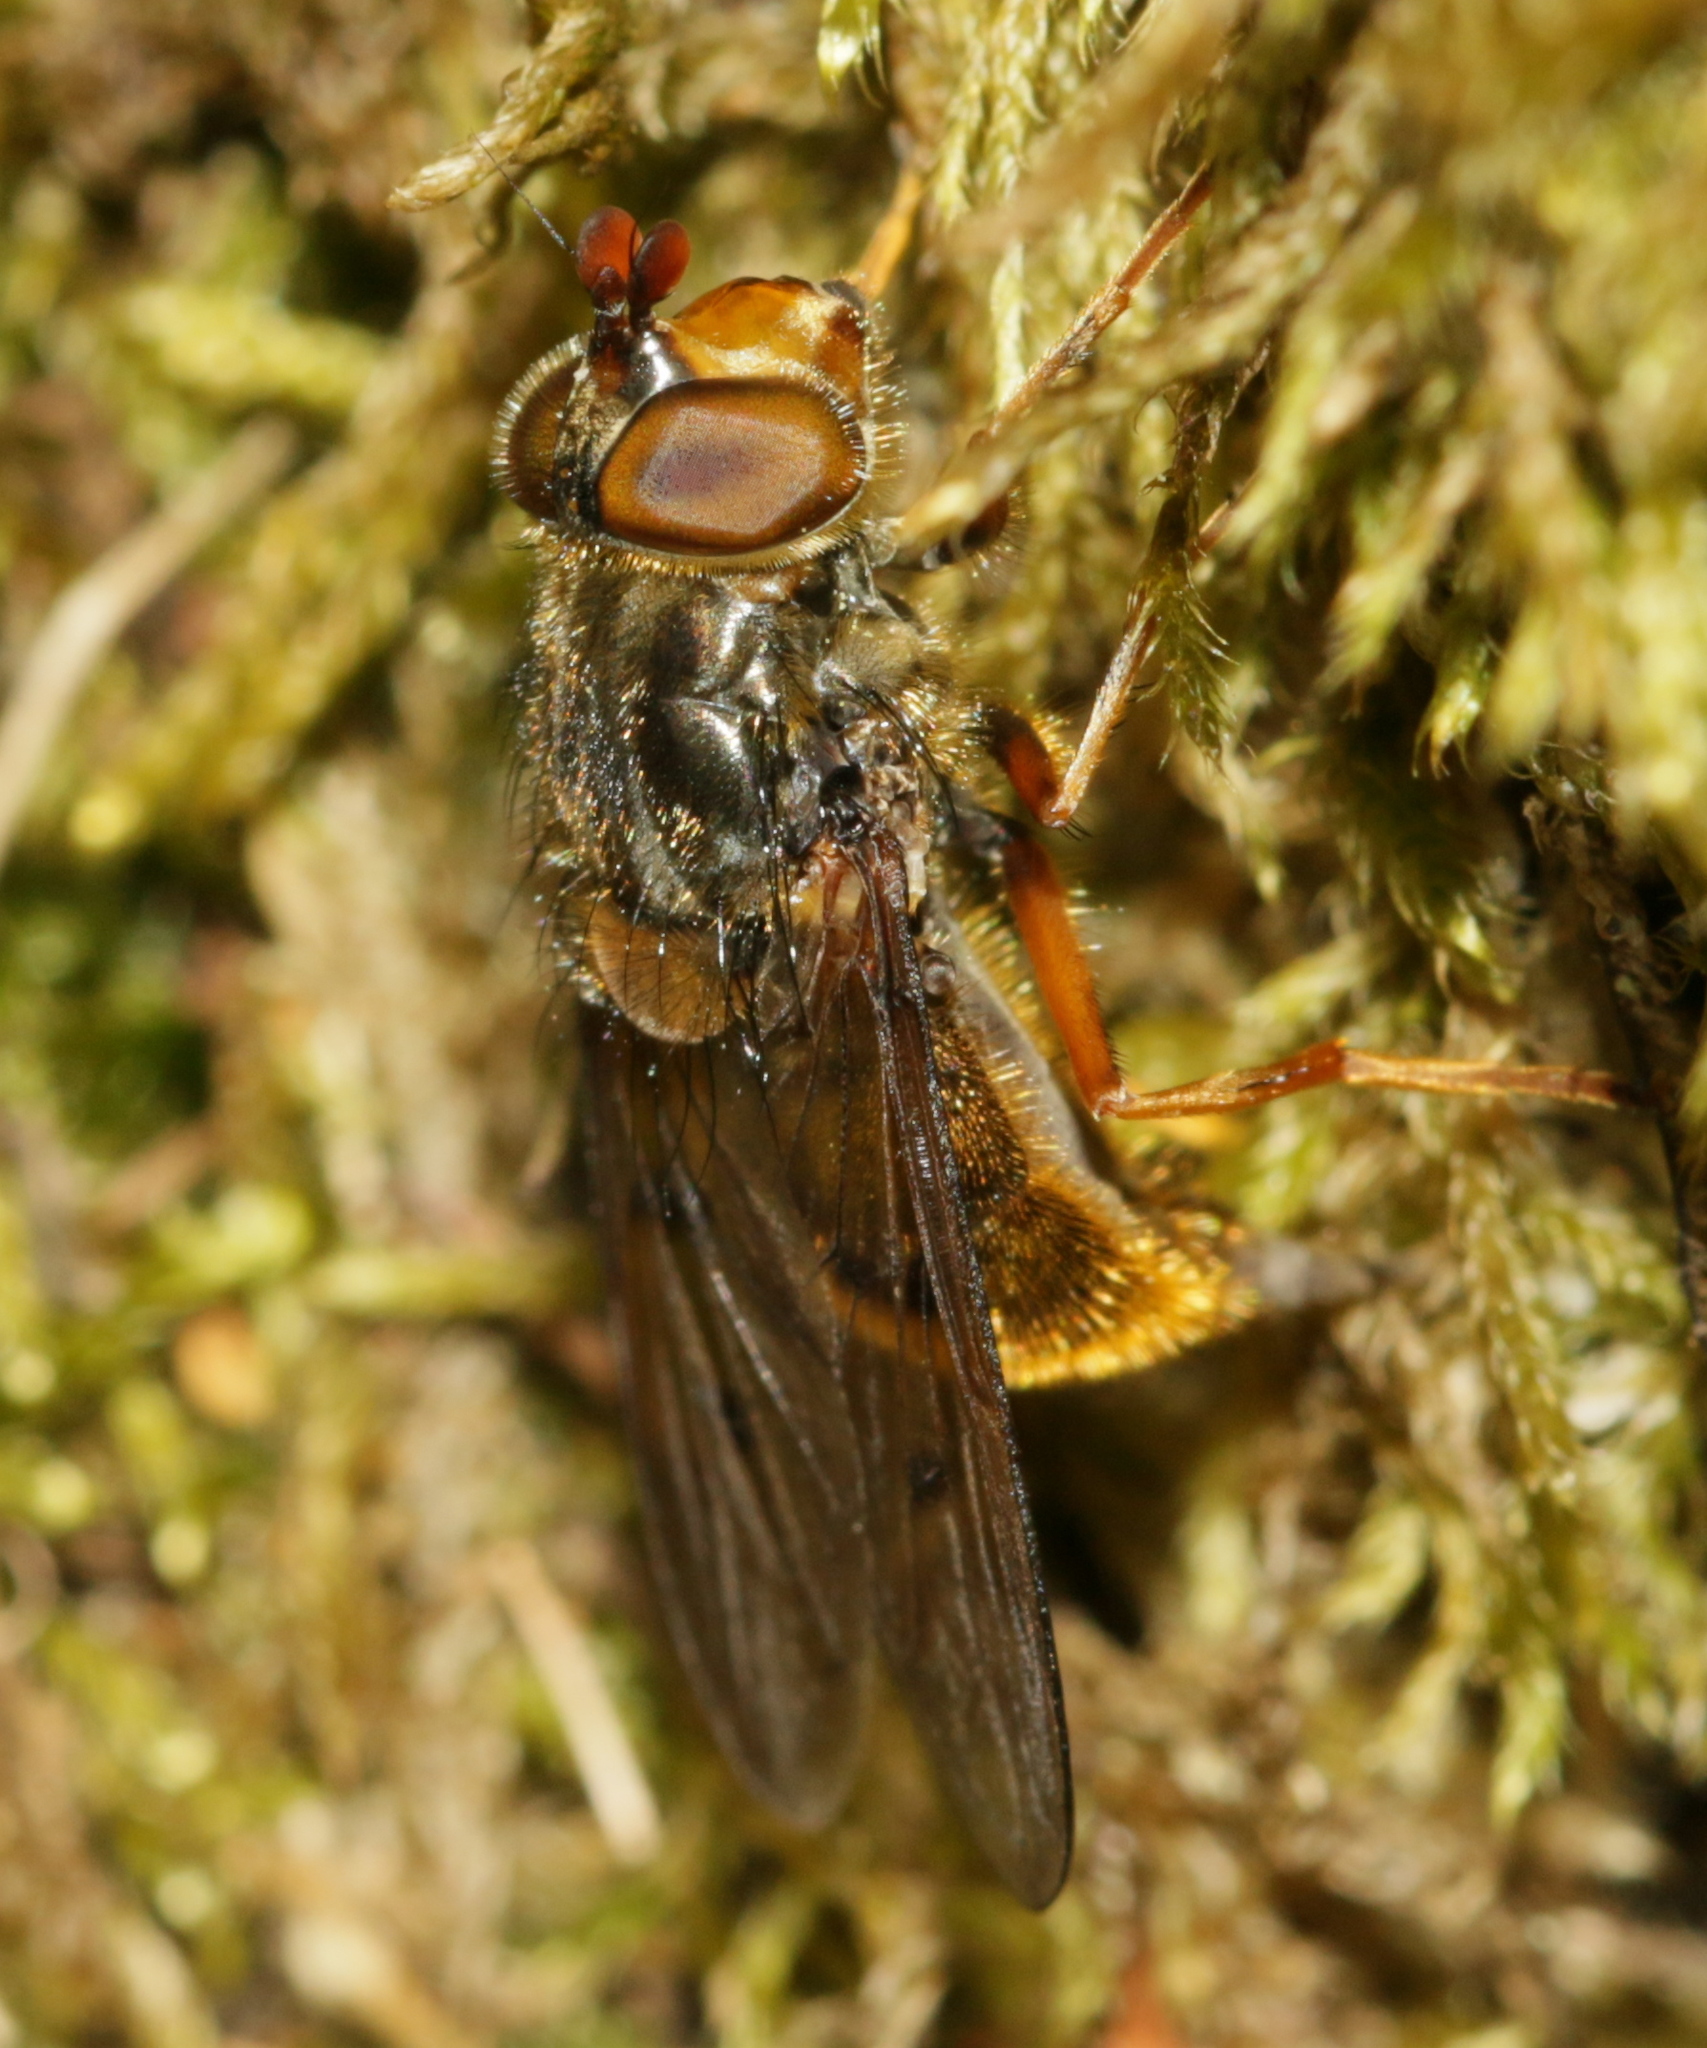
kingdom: Animalia
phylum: Arthropoda
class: Insecta
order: Diptera
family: Syrphidae
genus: Ferdinandea
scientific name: Ferdinandea cuprea
